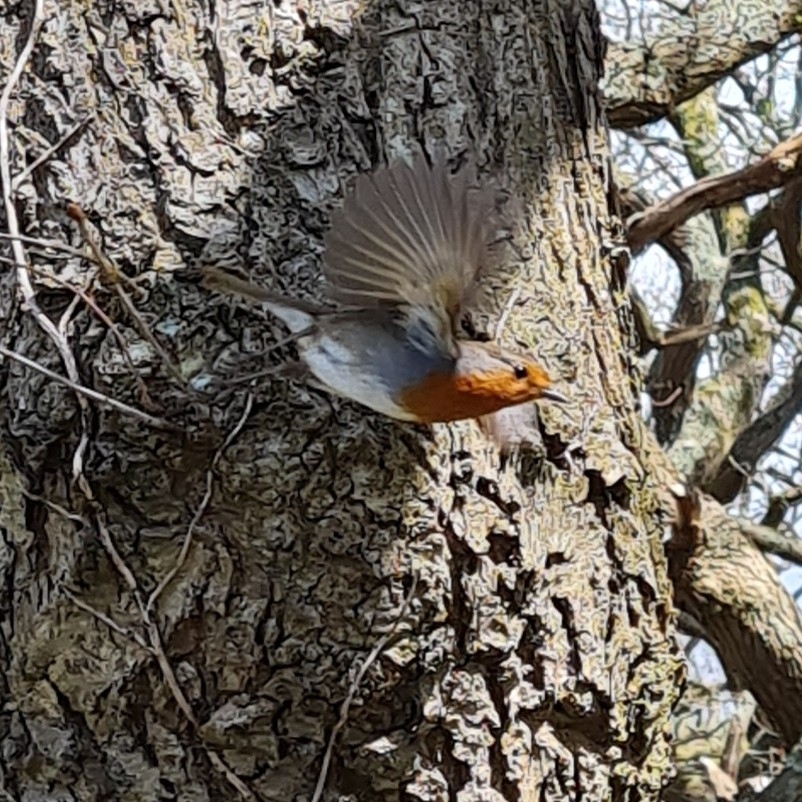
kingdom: Animalia
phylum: Chordata
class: Aves
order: Passeriformes
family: Muscicapidae
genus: Erithacus
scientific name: Erithacus rubecula
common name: European robin
